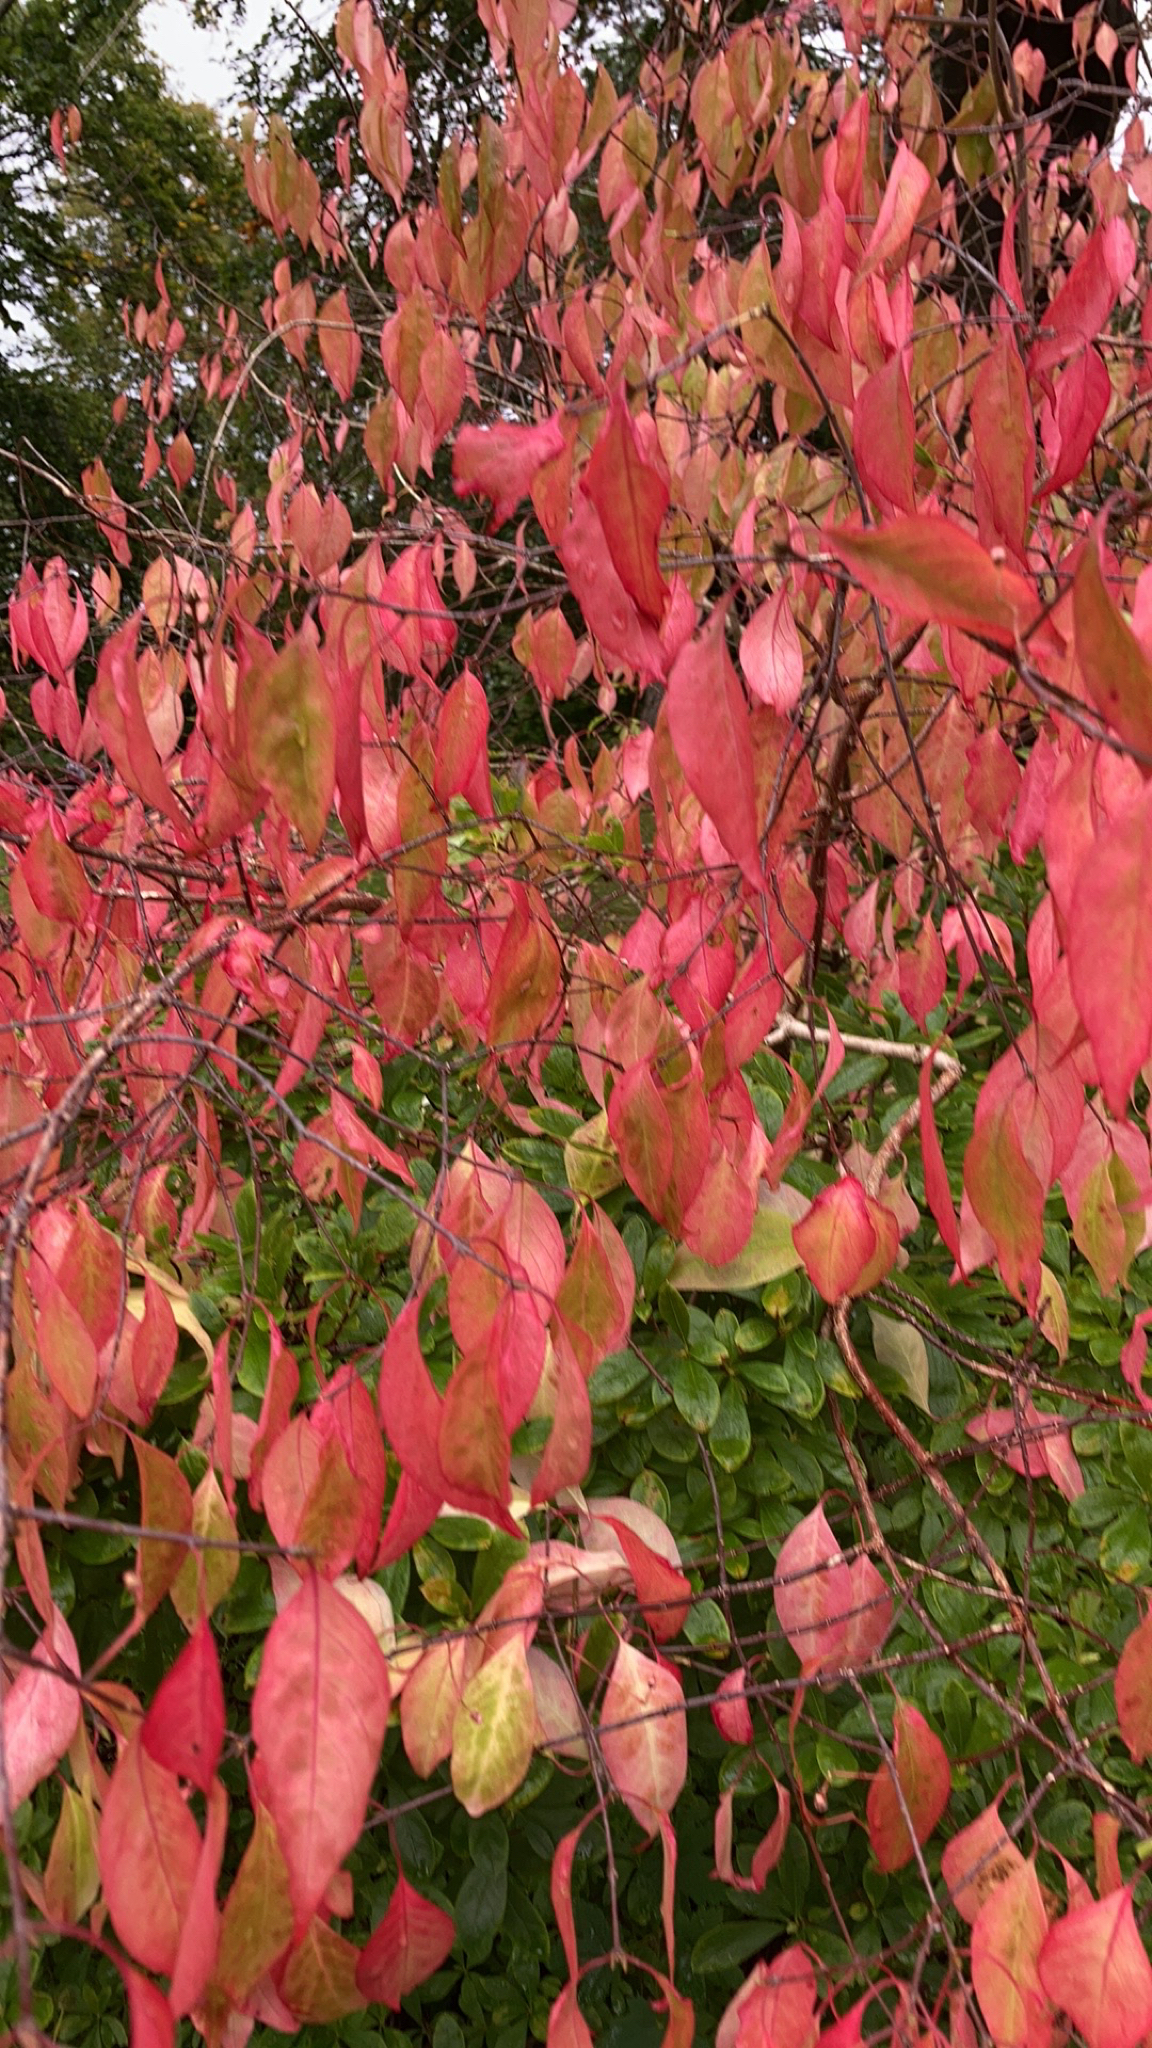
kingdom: Plantae
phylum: Tracheophyta
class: Magnoliopsida
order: Celastrales
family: Celastraceae
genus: Euonymus
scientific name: Euonymus alatus
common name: Winged euonymus
